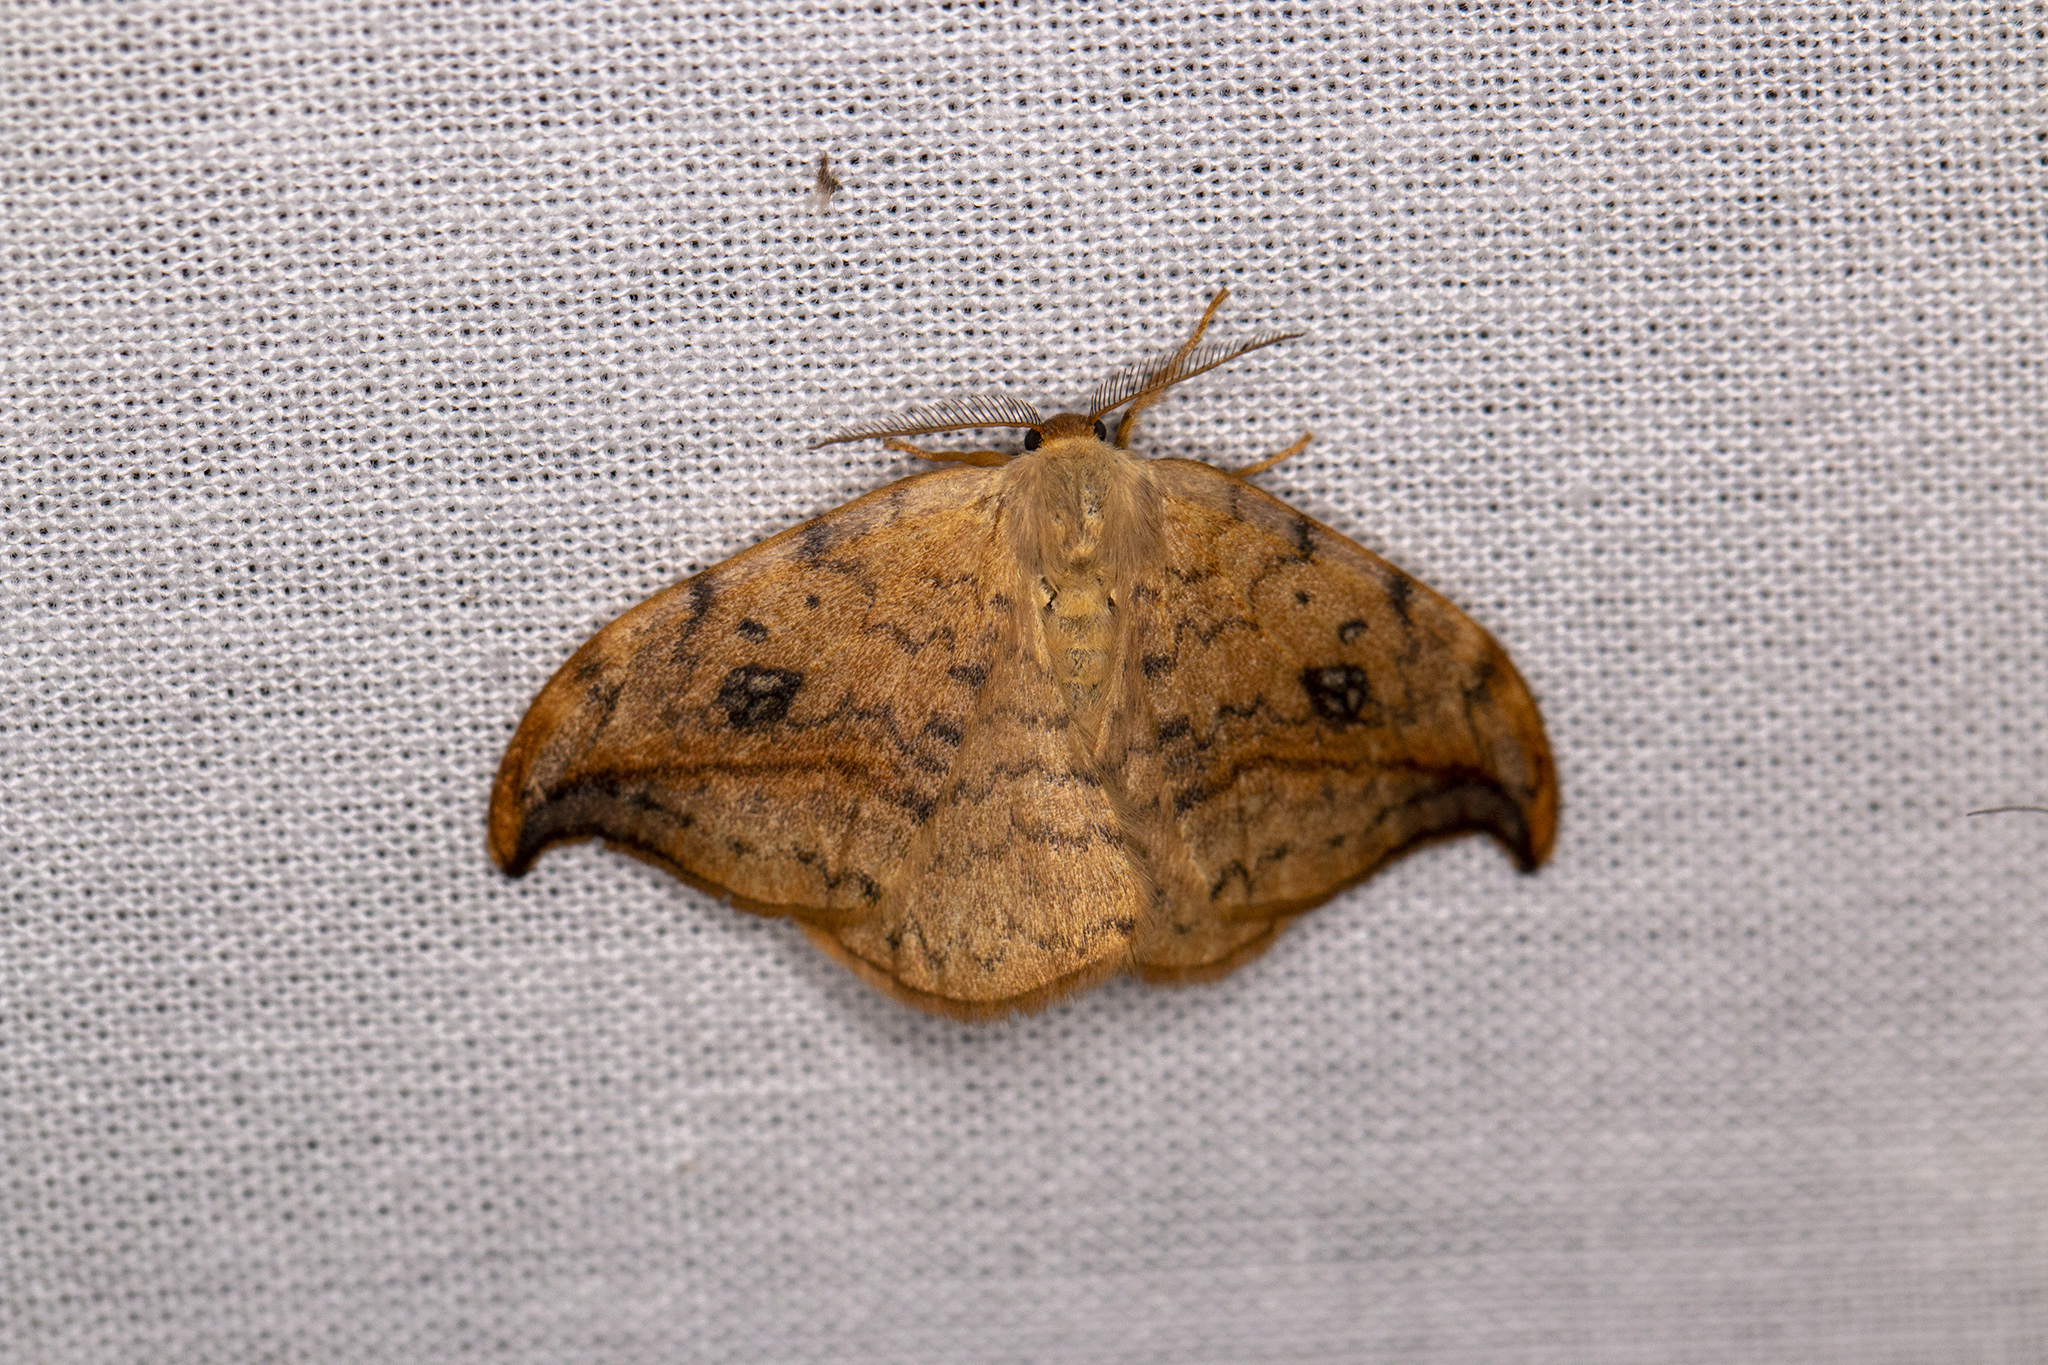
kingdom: Animalia
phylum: Arthropoda
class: Insecta
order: Lepidoptera
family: Drepanidae
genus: Drepana
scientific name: Drepana falcataria
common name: Pebble hook-tip
